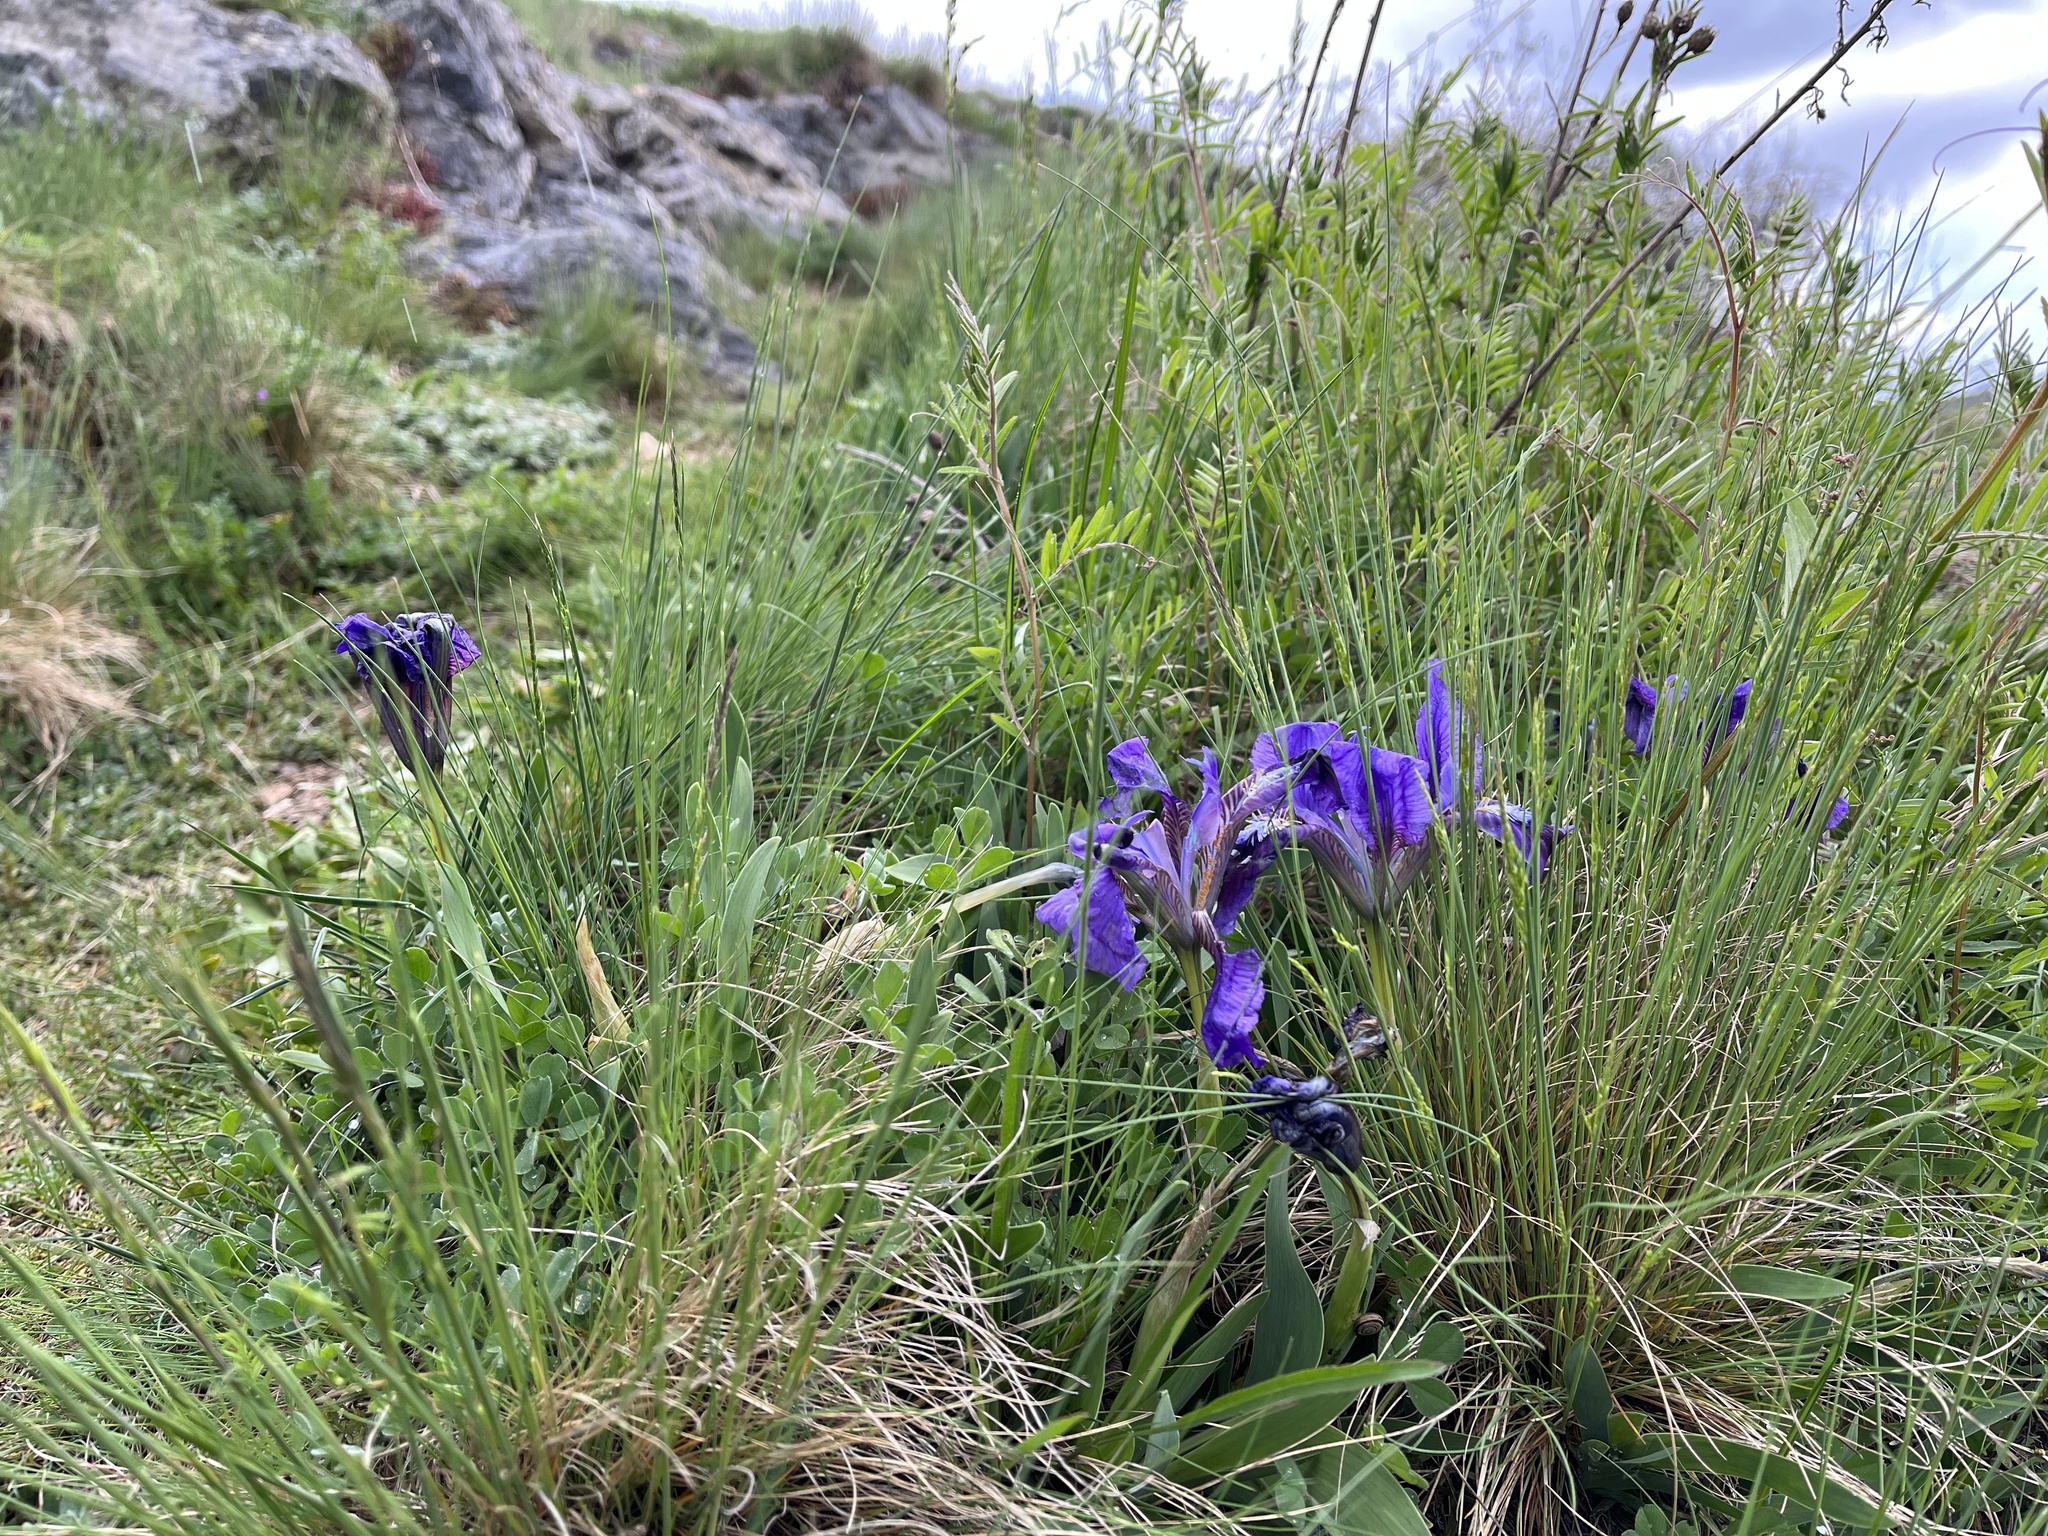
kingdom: Plantae
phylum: Tracheophyta
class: Liliopsida
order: Asparagales
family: Iridaceae
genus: Iris
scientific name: Iris pumila
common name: Dwarf iris
